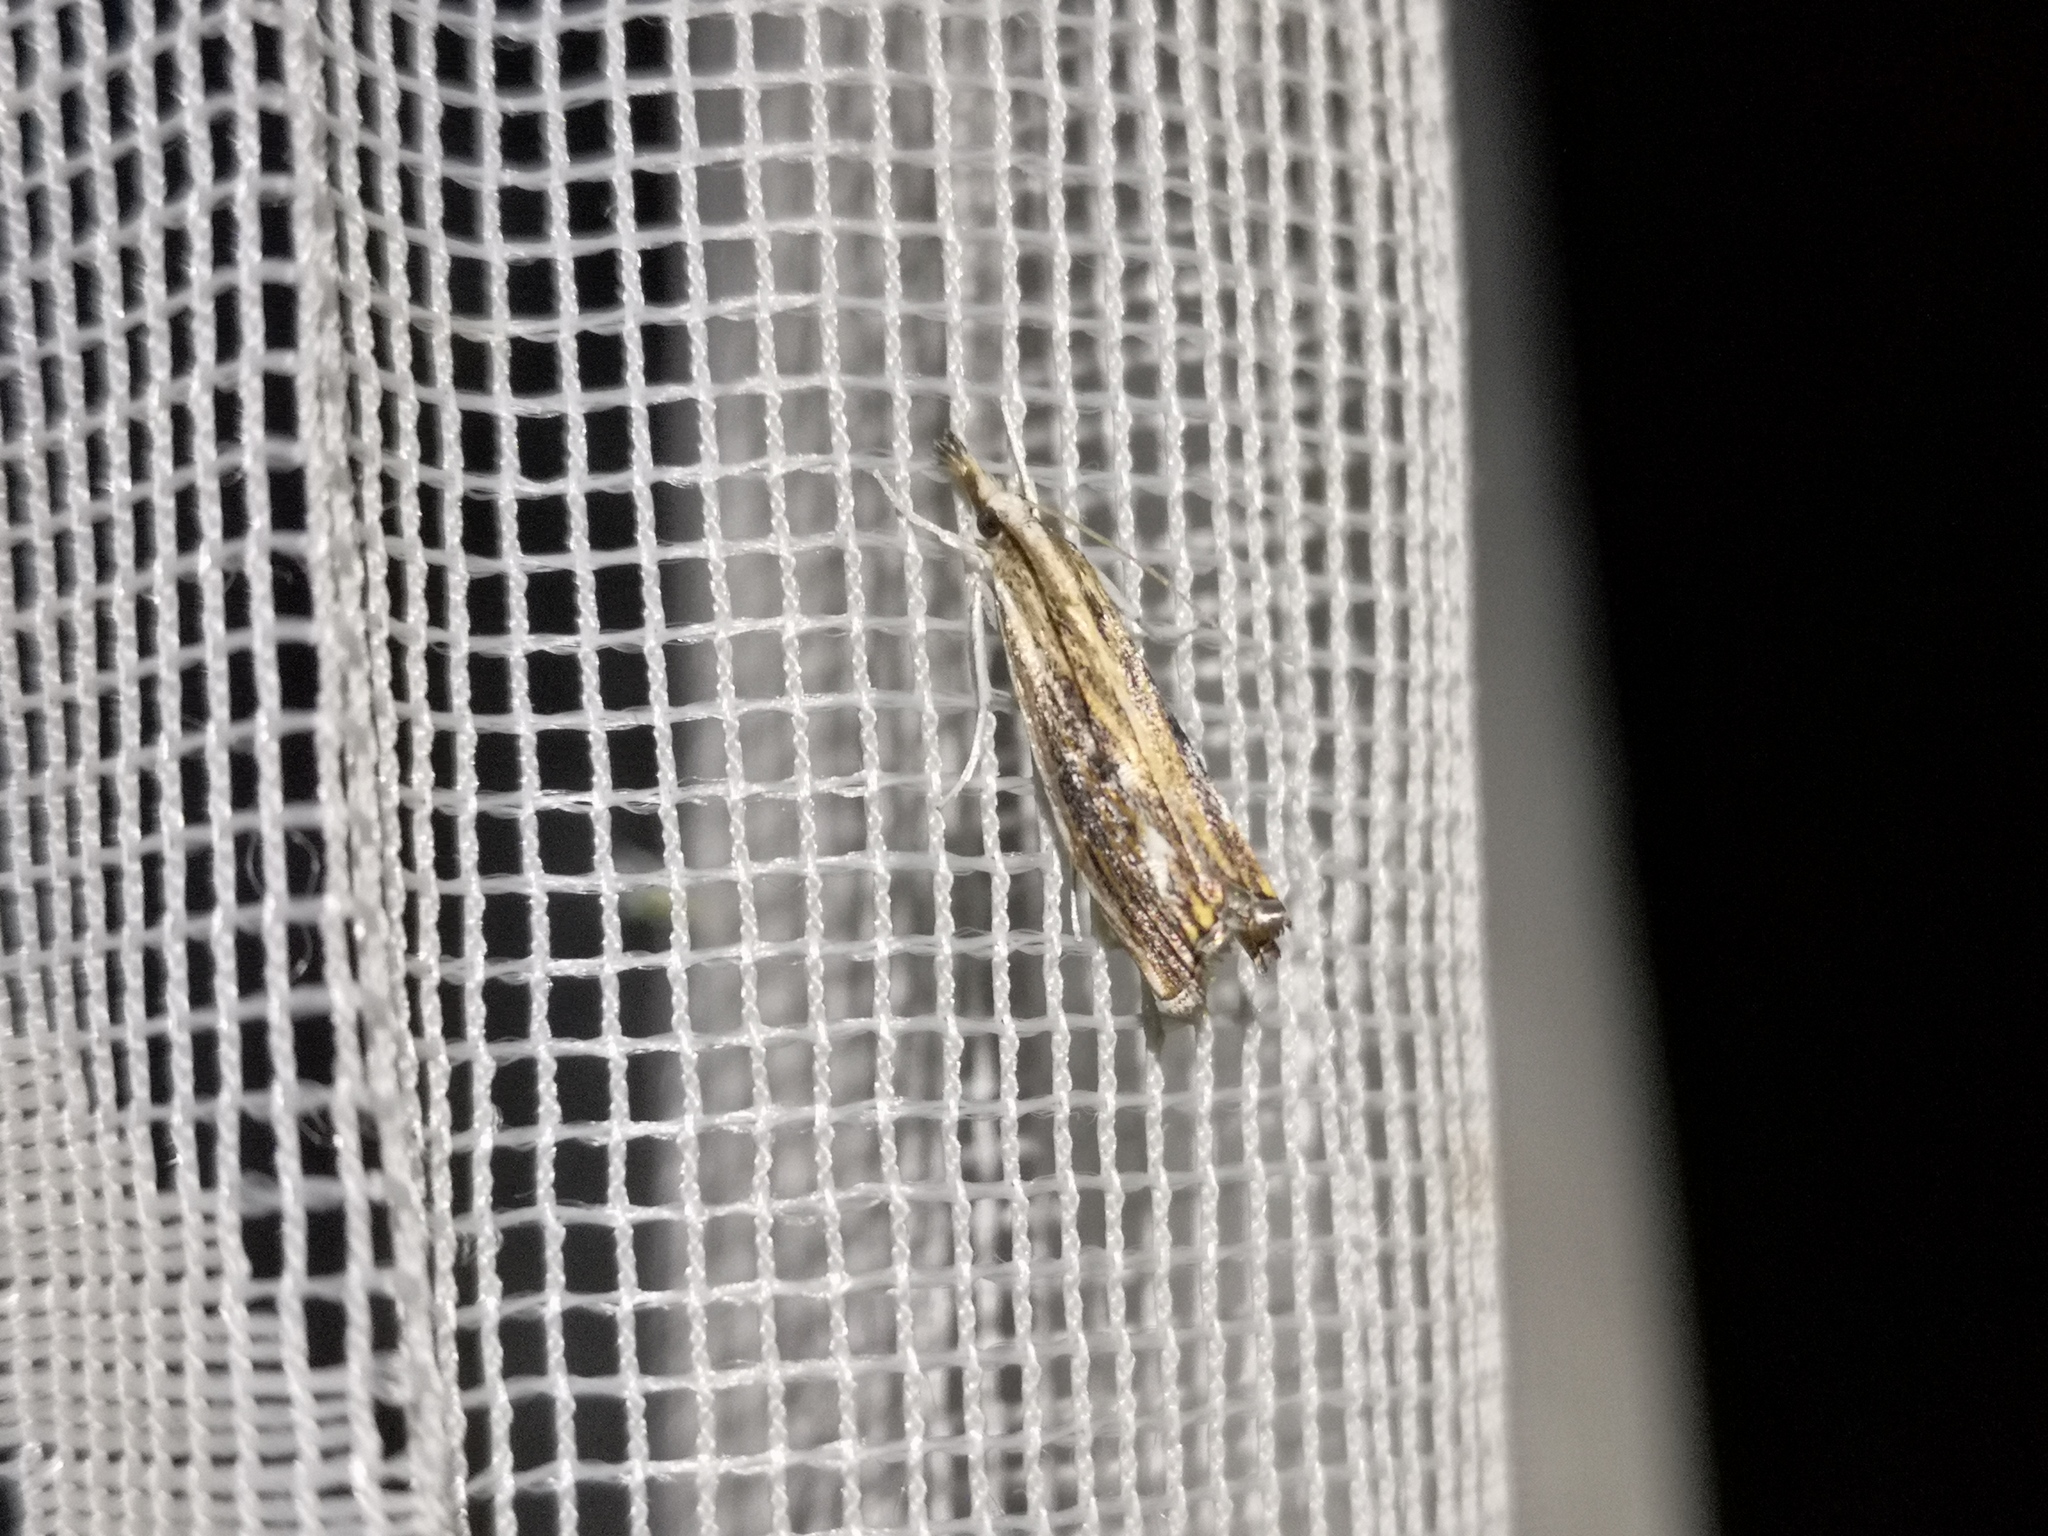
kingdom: Animalia
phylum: Arthropoda
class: Insecta
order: Lepidoptera
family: Crambidae
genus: Catoptria
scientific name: Catoptria verellus
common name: Marbled grass-veneer
